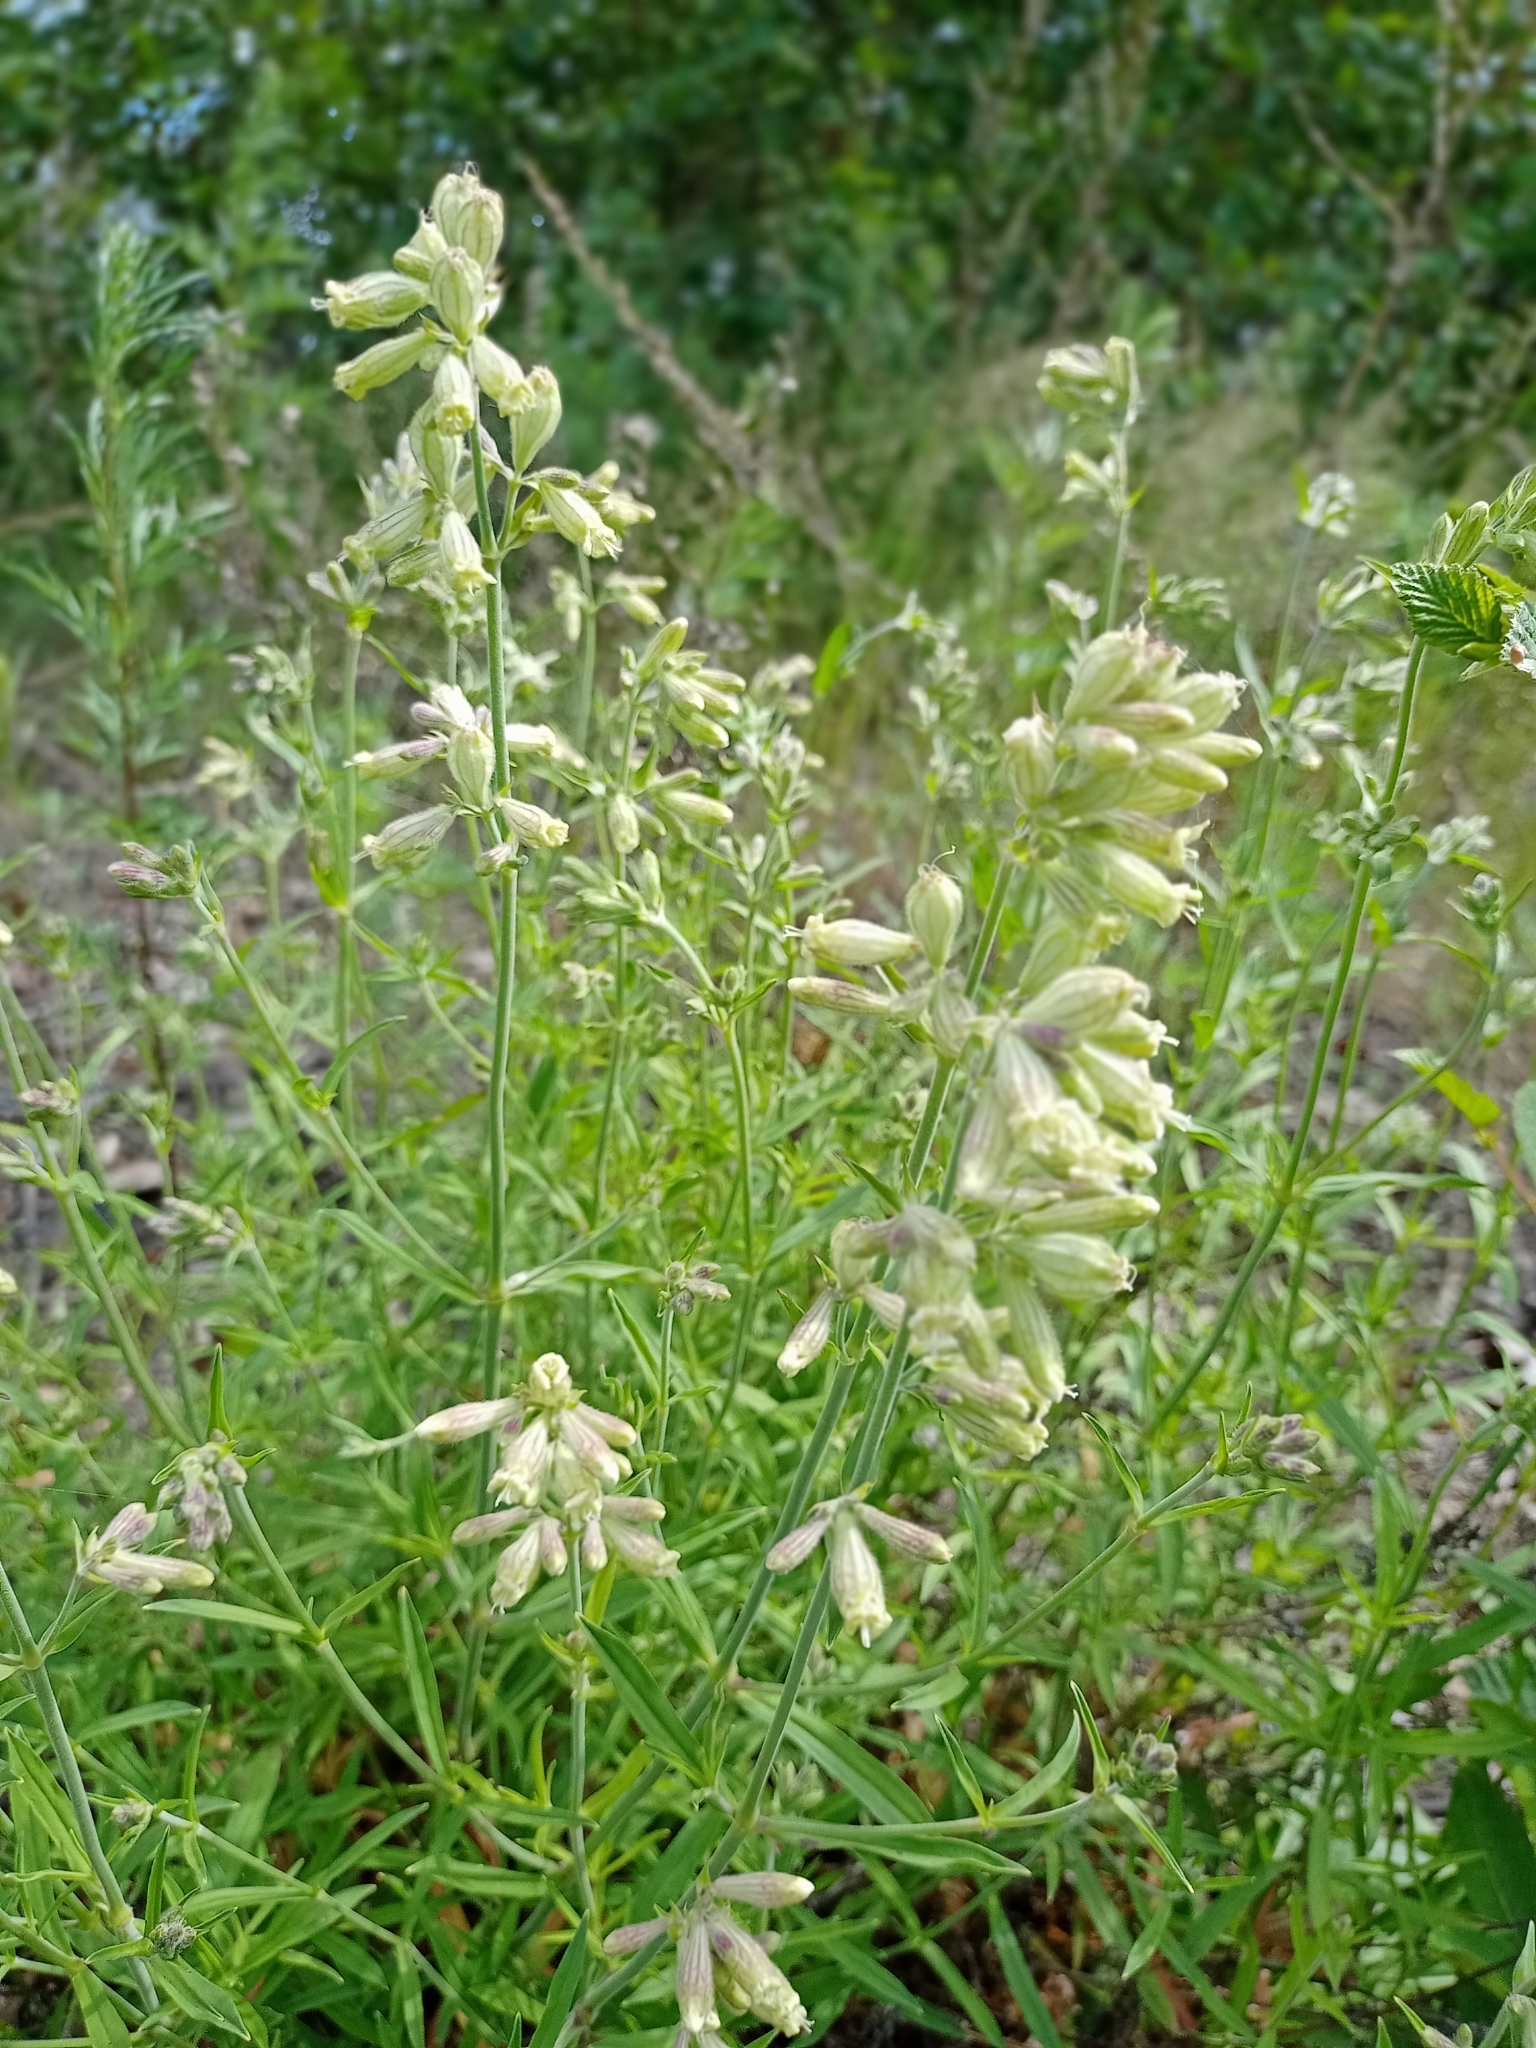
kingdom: Plantae
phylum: Tracheophyta
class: Magnoliopsida
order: Caryophyllales
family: Caryophyllaceae
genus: Silene
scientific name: Silene amoena
